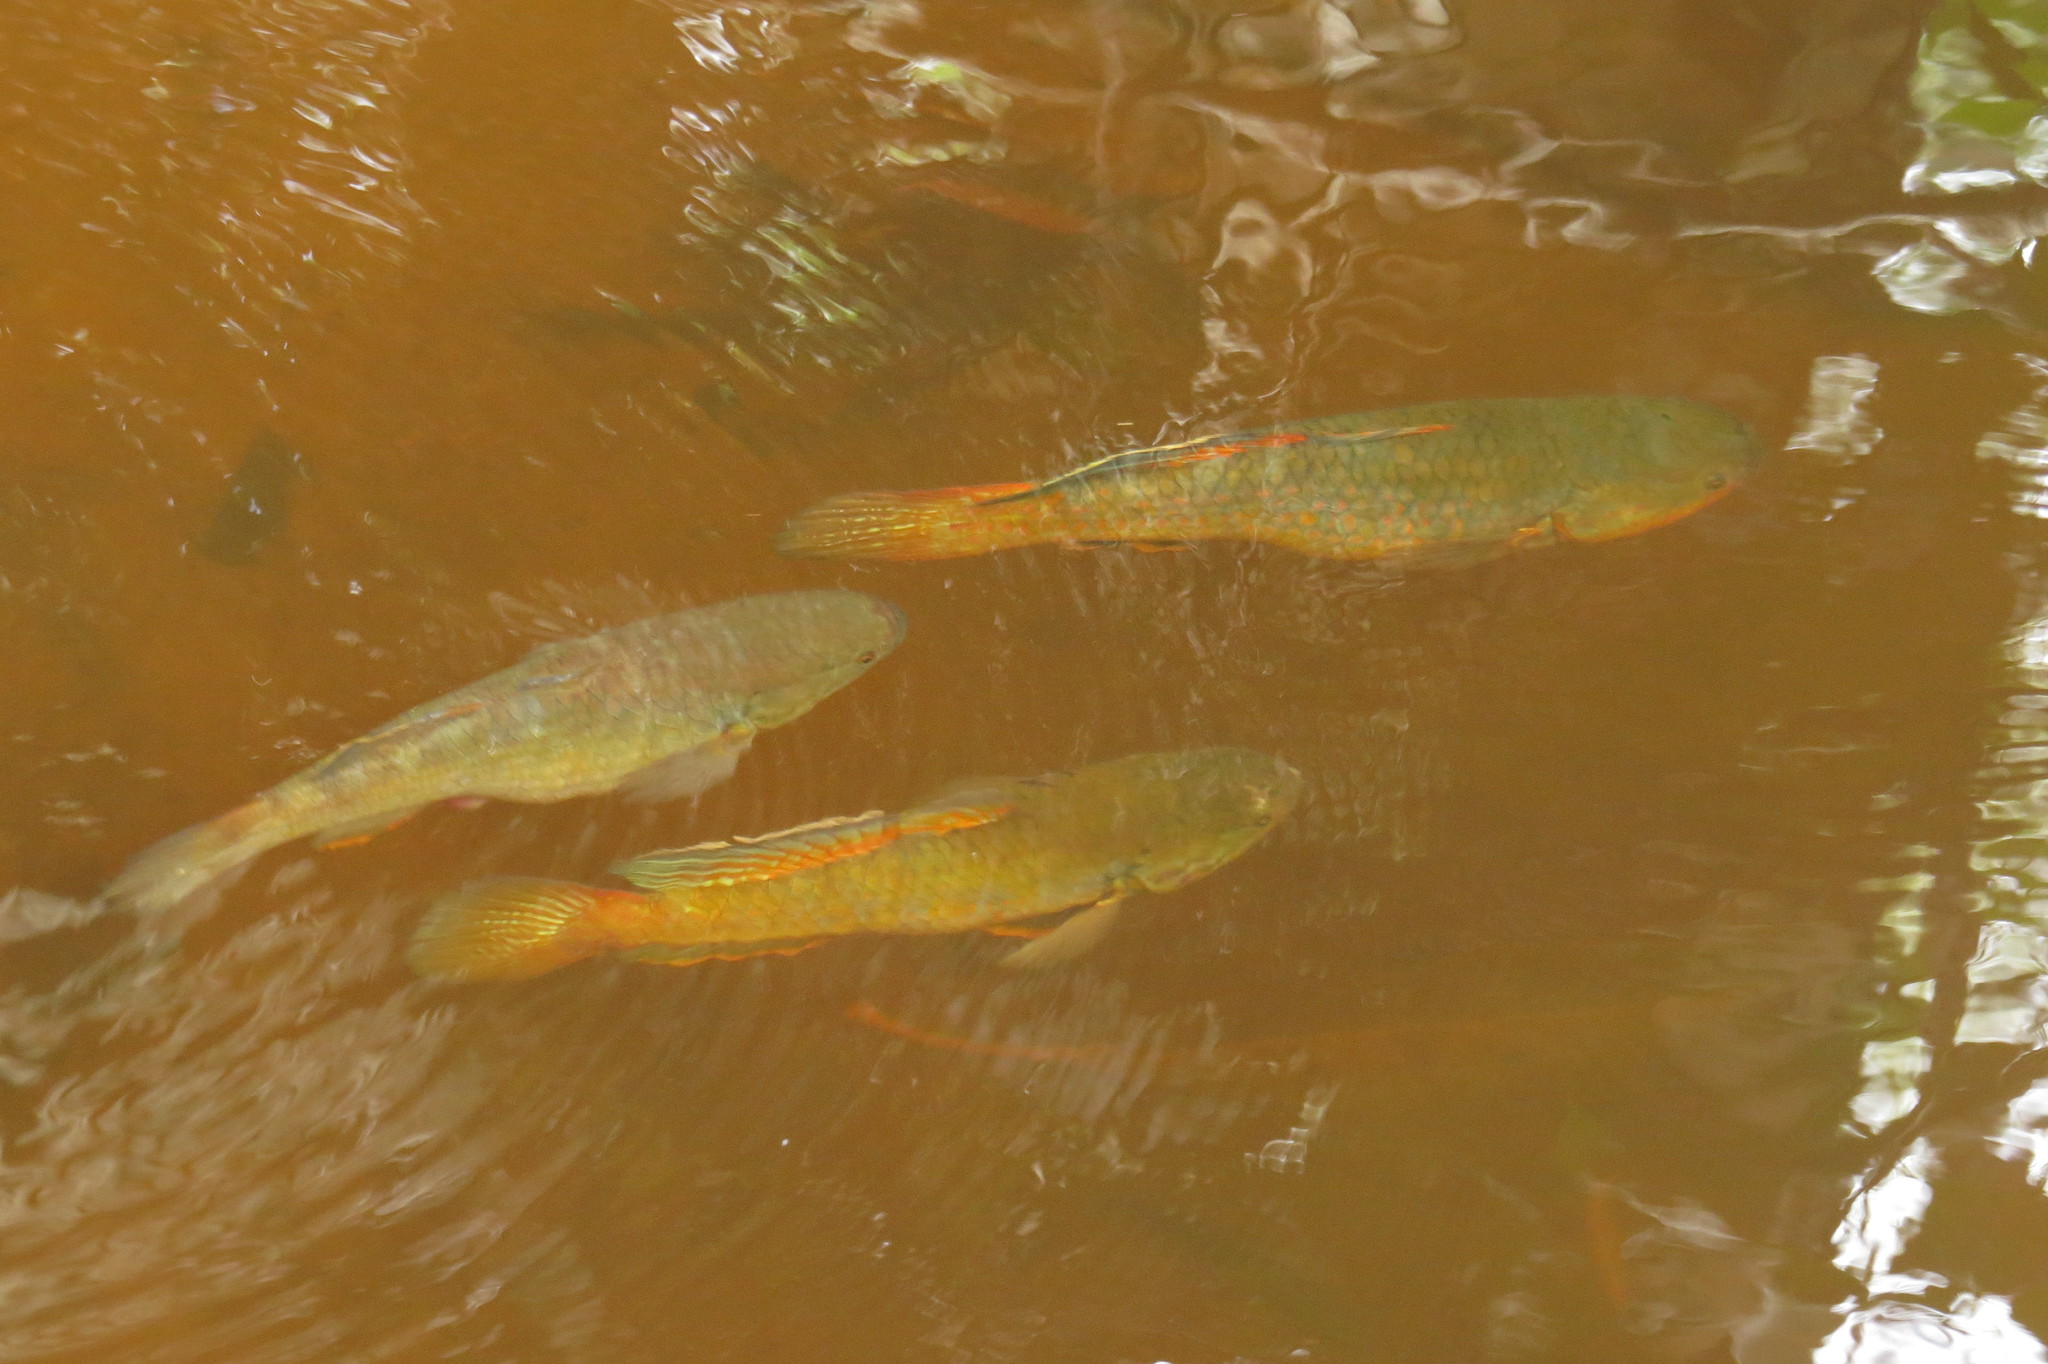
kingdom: Animalia
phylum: Chordata
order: Perciformes
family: Eleotridae
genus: Giuris
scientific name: Giuris
